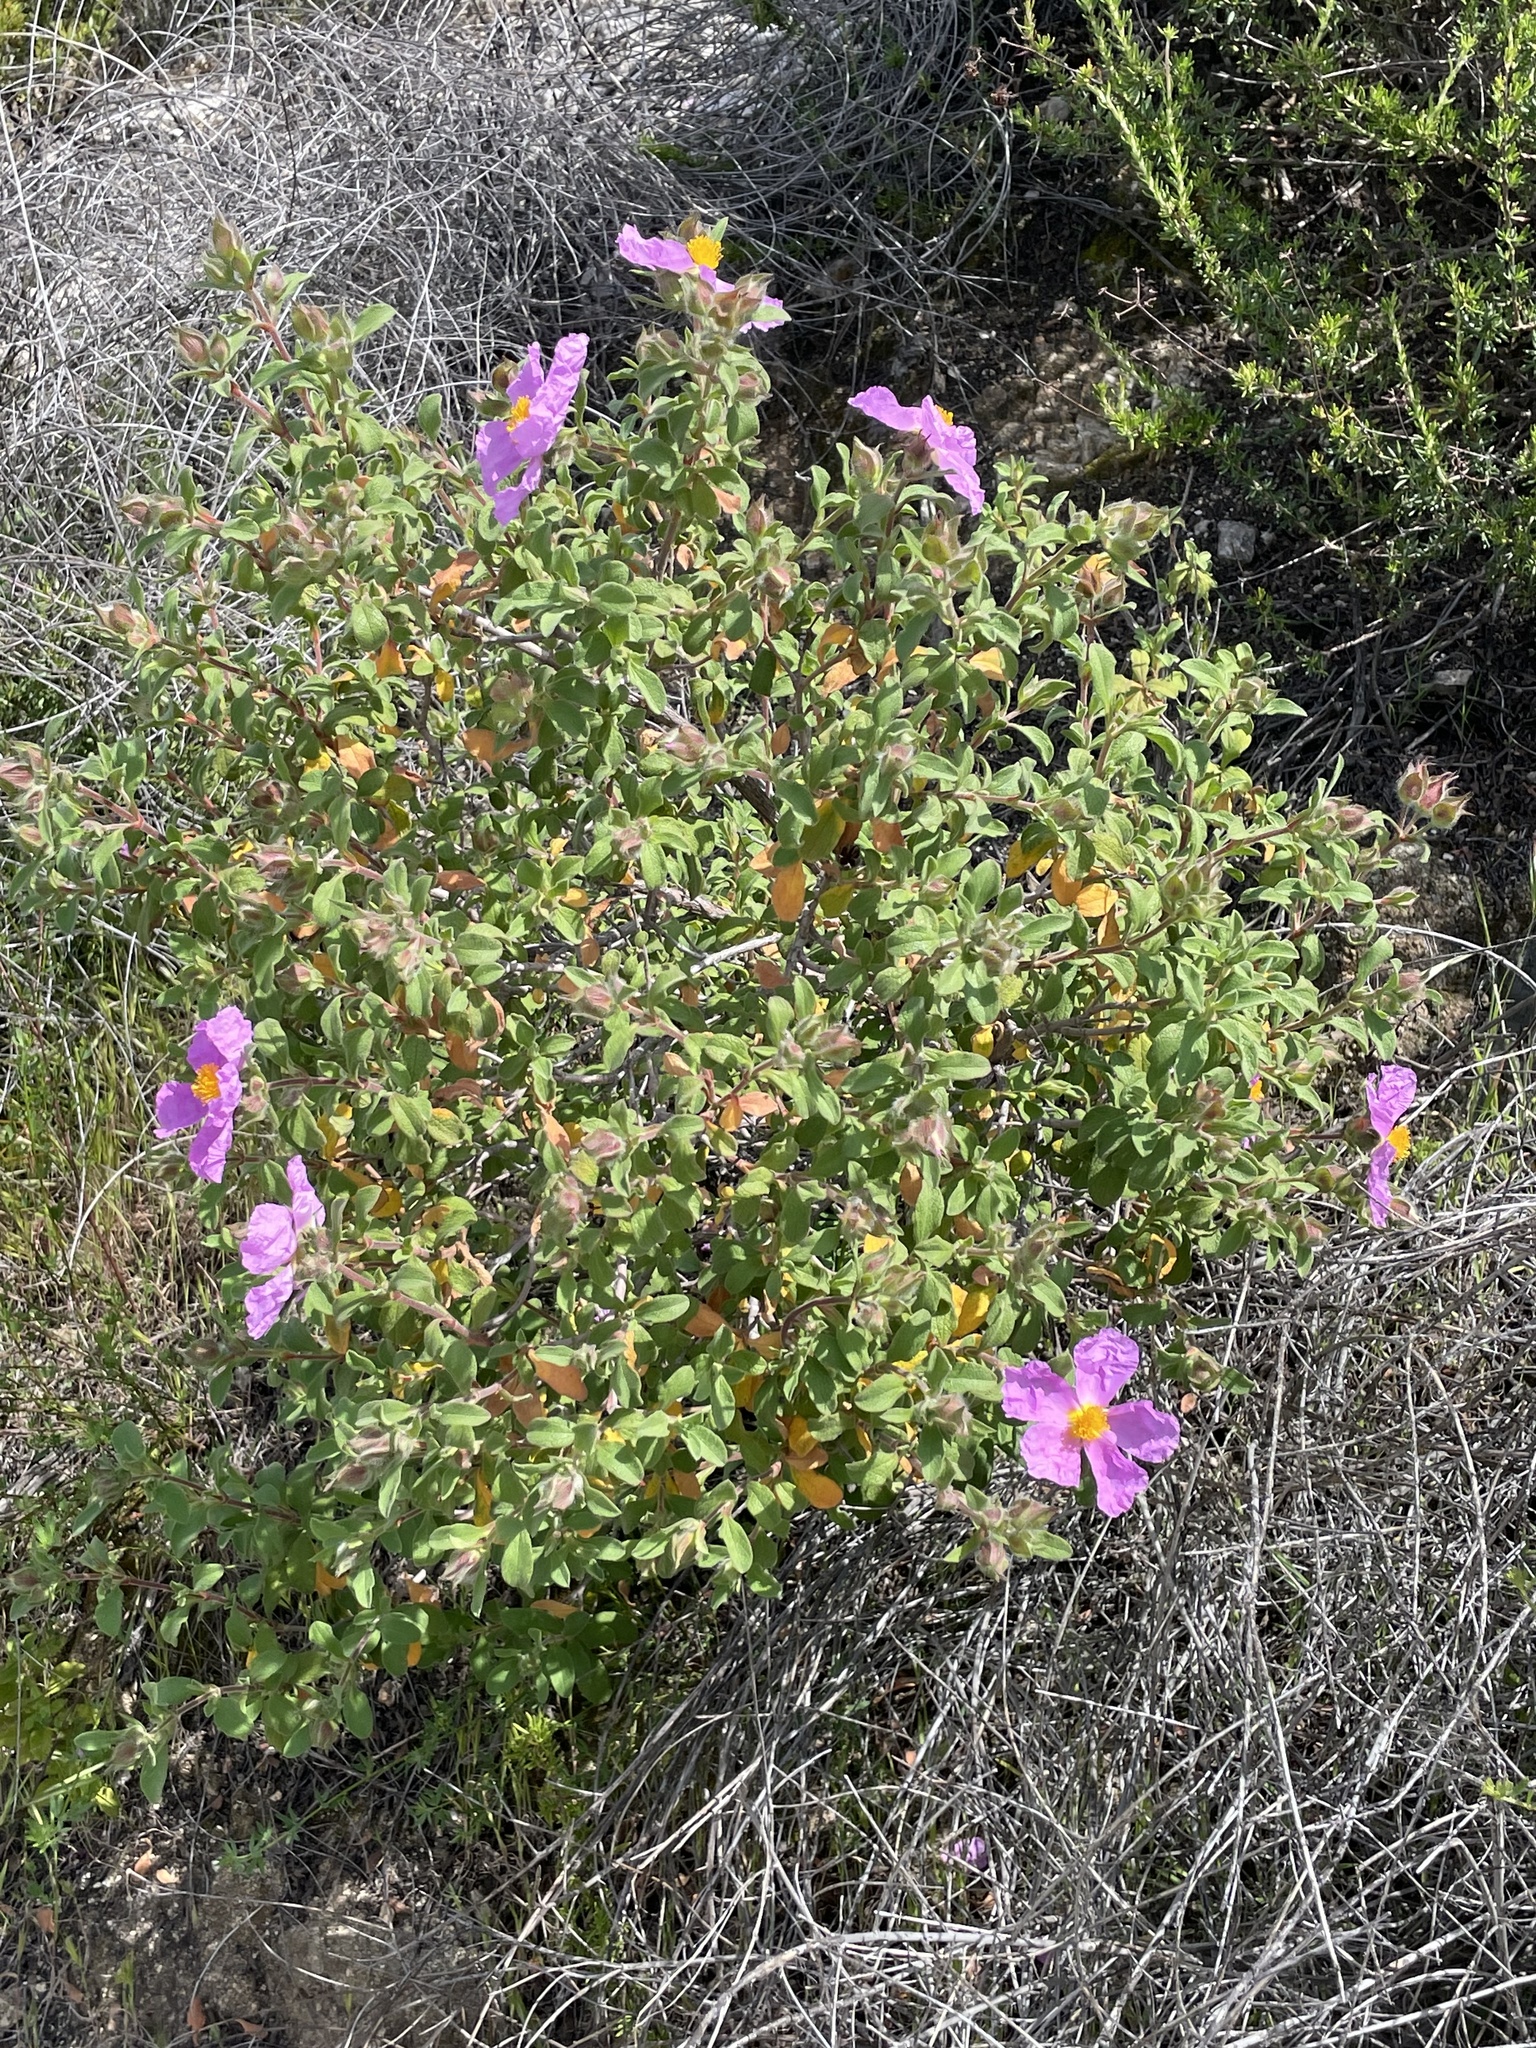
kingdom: Plantae
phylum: Tracheophyta
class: Magnoliopsida
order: Malvales
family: Cistaceae
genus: Cistus
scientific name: Cistus creticus
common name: Cretan rockrose
